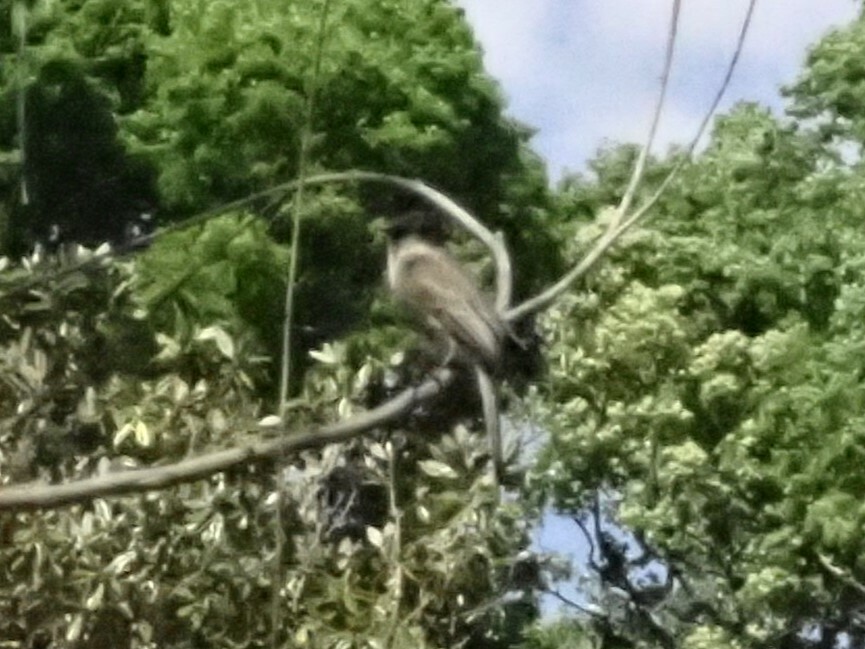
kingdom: Animalia
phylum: Chordata
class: Aves
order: Passeriformes
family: Tyrannidae
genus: Sayornis
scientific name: Sayornis phoebe
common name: Eastern phoebe
